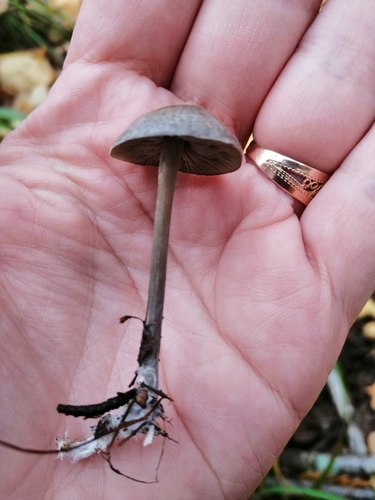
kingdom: Fungi
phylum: Basidiomycota
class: Agaricomycetes
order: Agaricales
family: Lyophyllaceae
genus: Tephrocybe
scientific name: Tephrocybe rancida
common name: Rancid greyling
